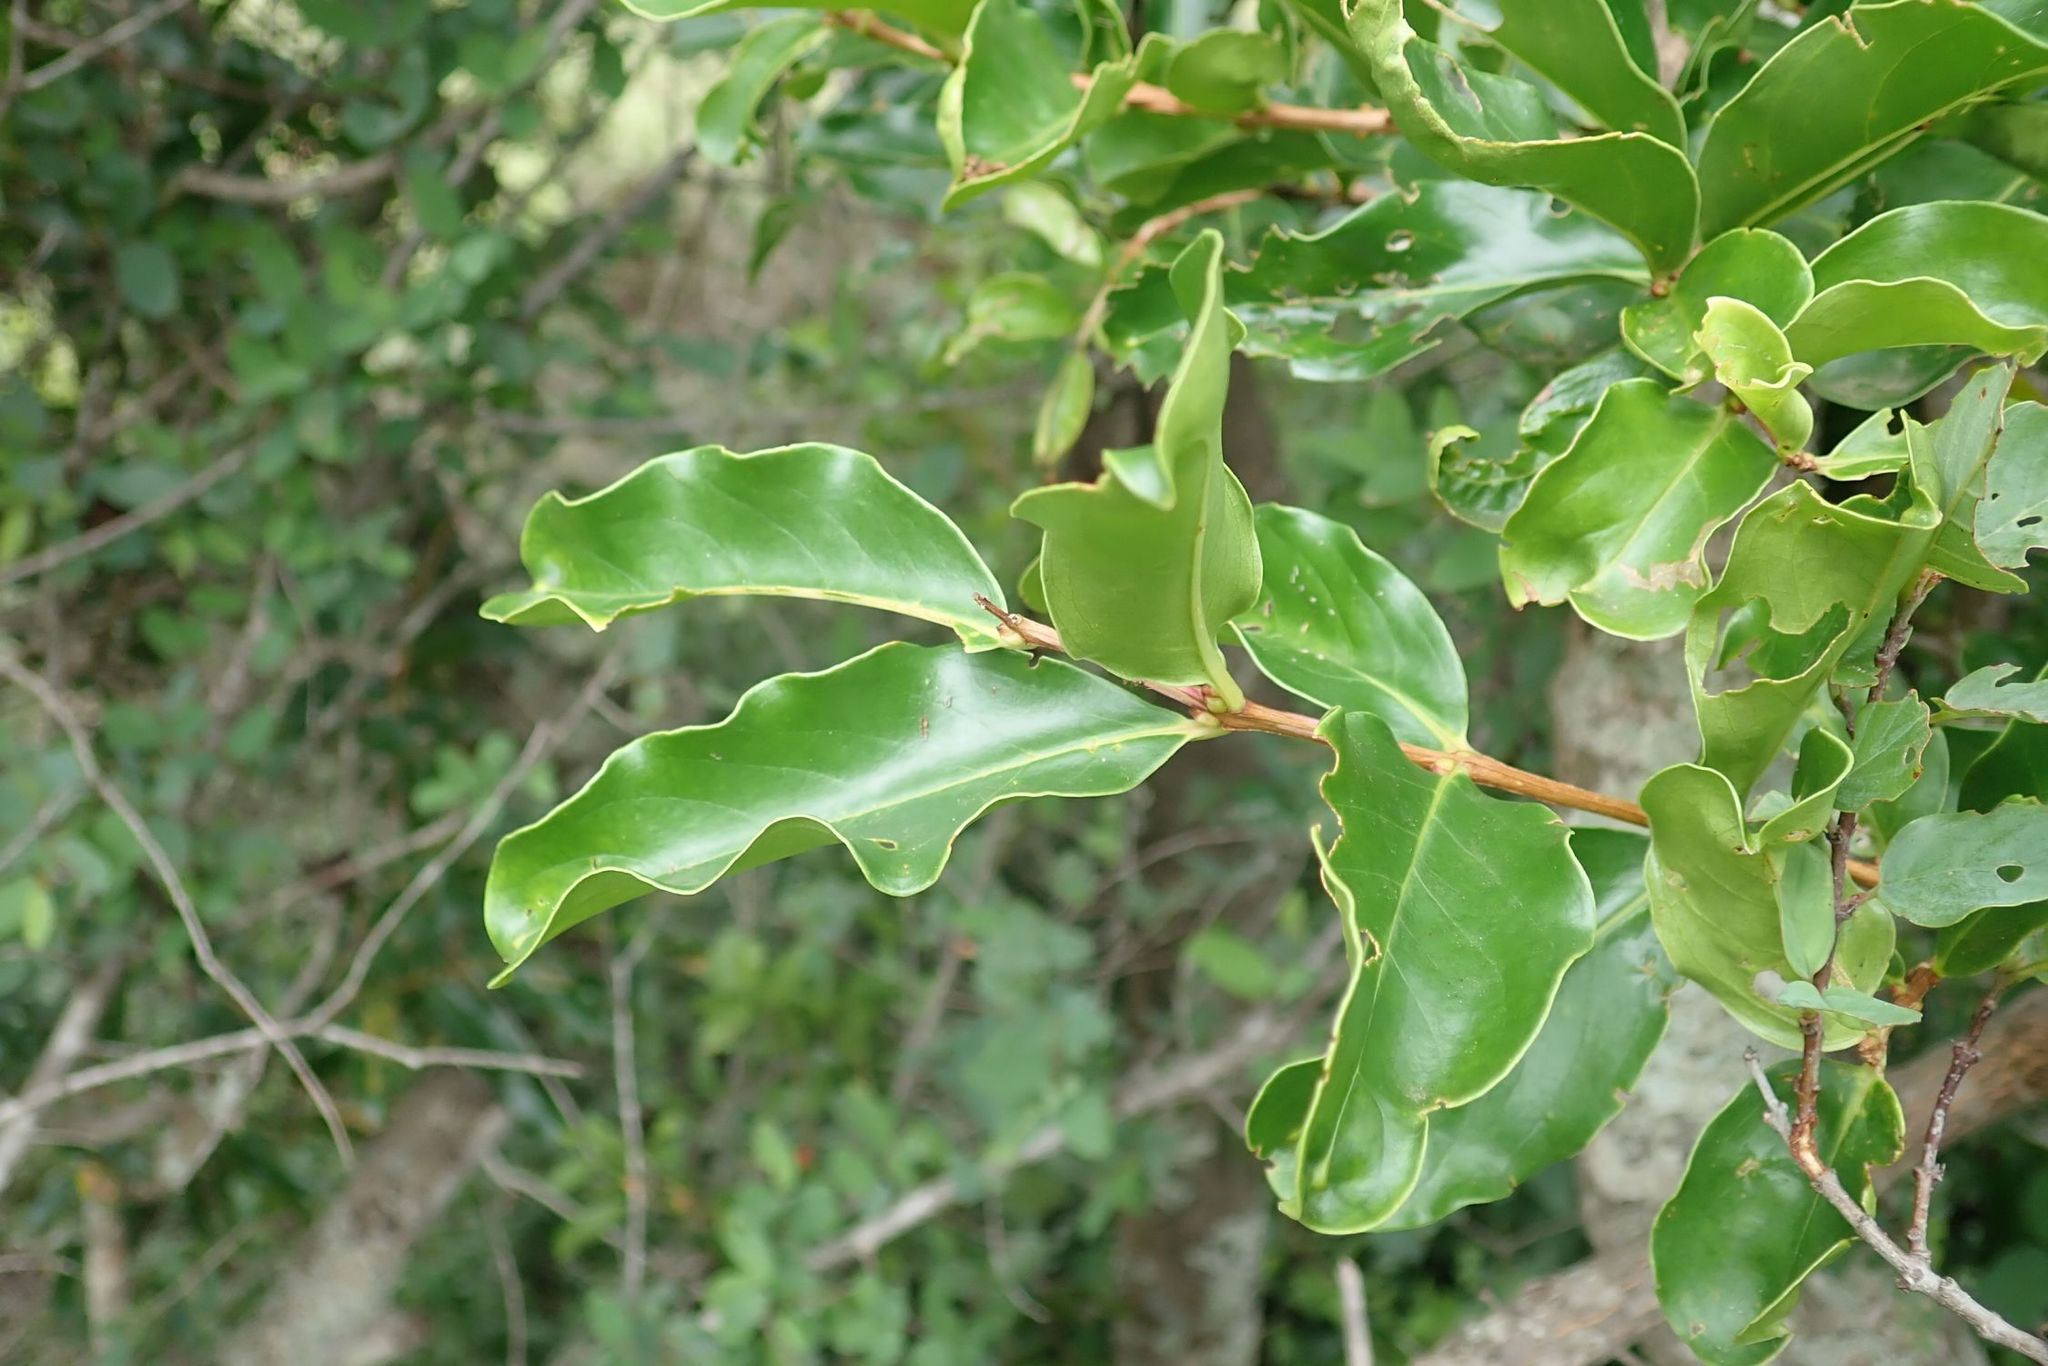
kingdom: Plantae
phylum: Tracheophyta
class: Magnoliopsida
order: Myrtales
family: Lythraceae
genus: Galpinia
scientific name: Galpinia transvaalica
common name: Wild pride of india
